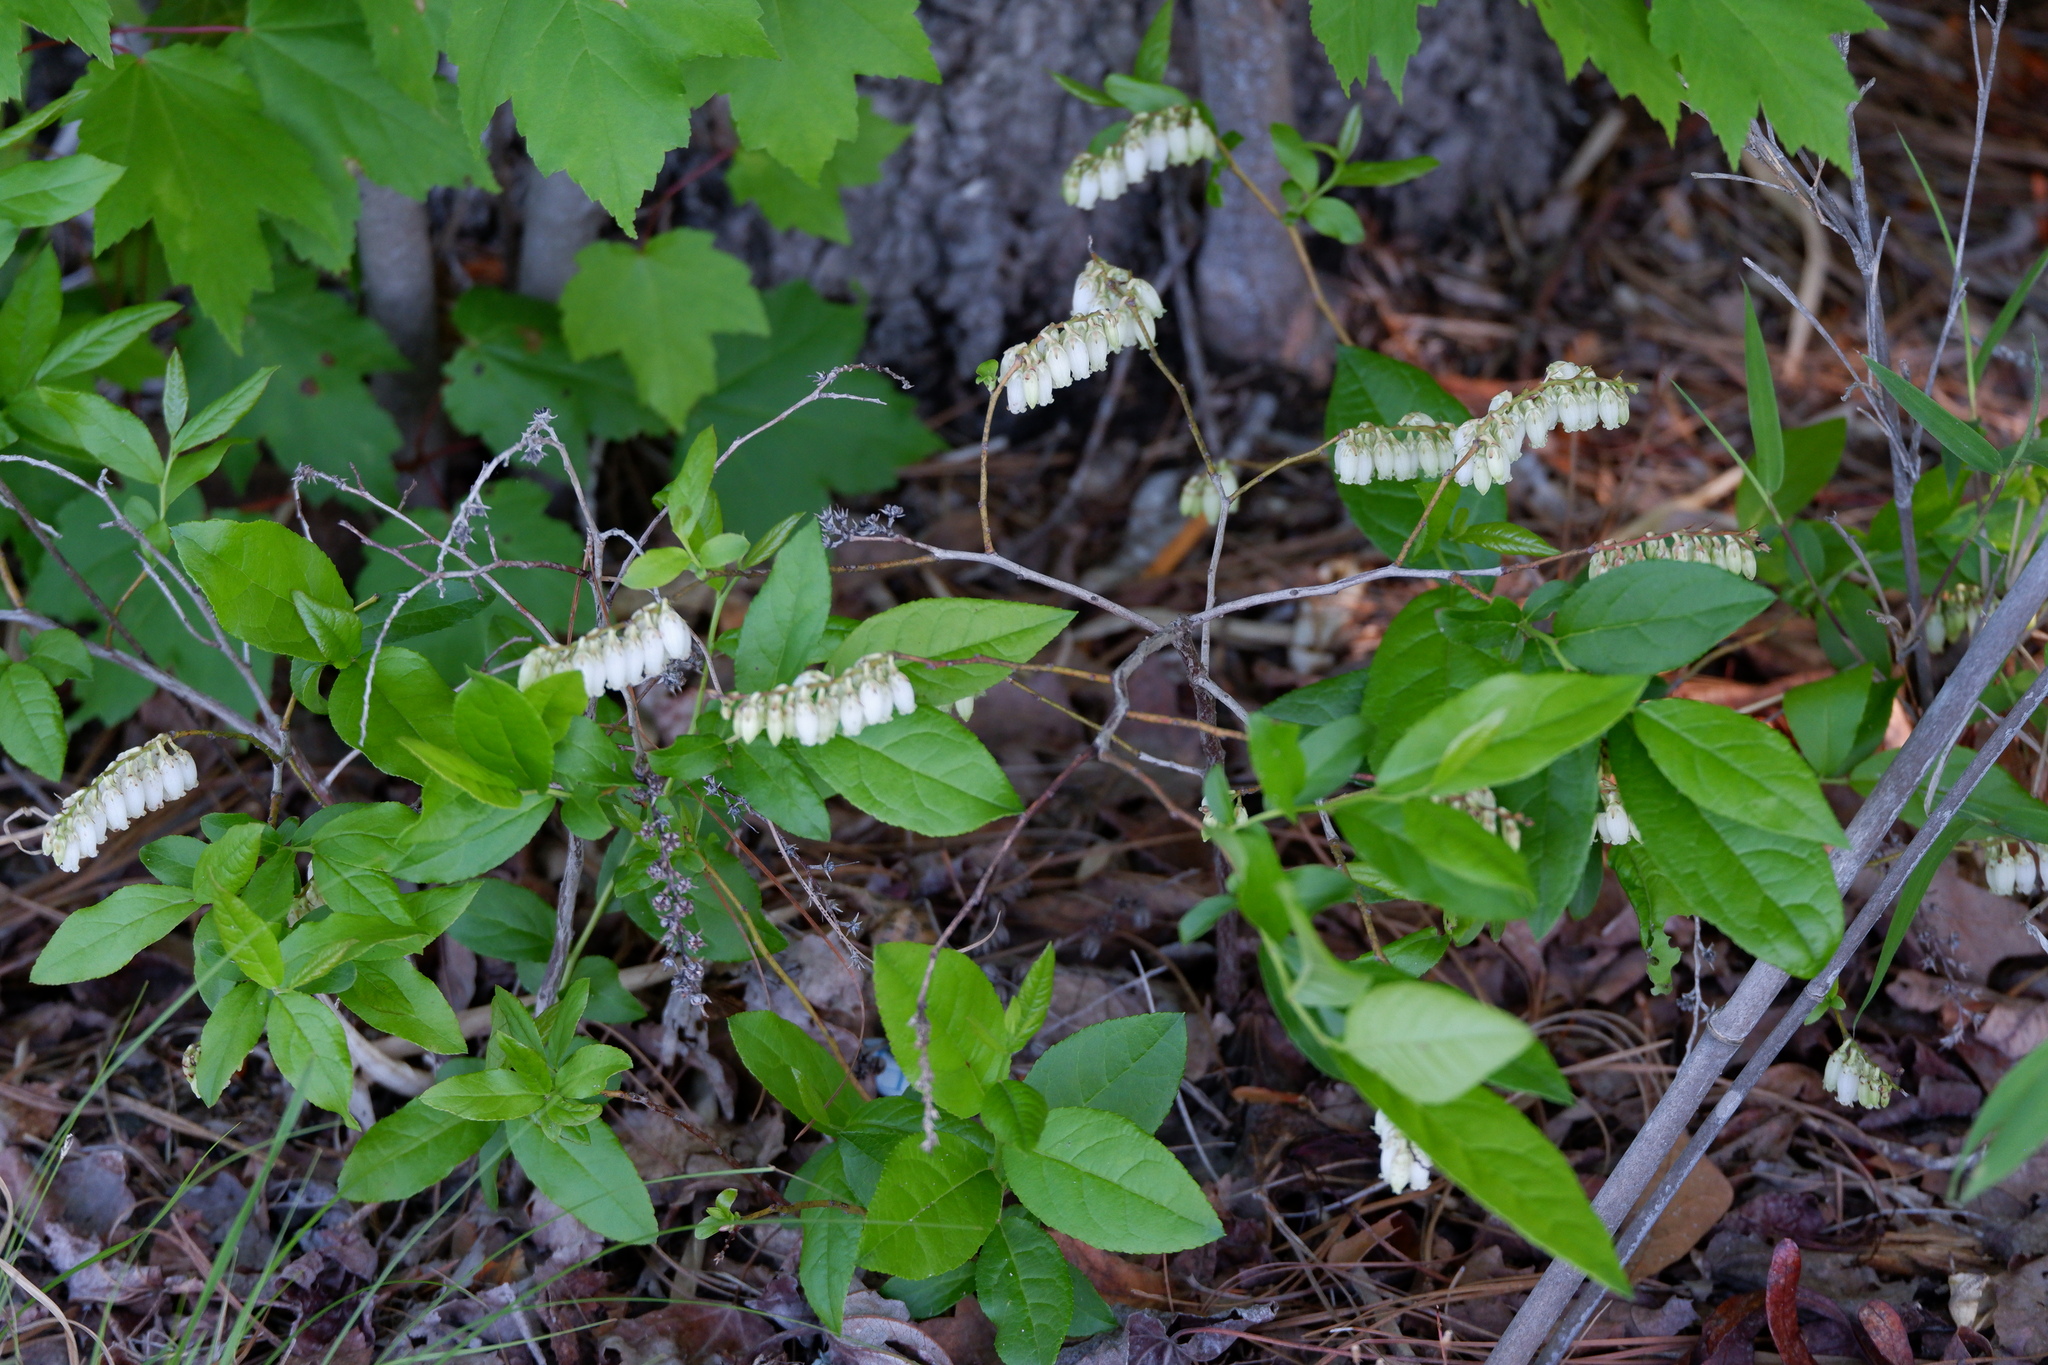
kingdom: Plantae
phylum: Tracheophyta
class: Magnoliopsida
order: Ericales
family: Ericaceae
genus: Eubotrys
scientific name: Eubotrys racemosa
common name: Fetterbush
